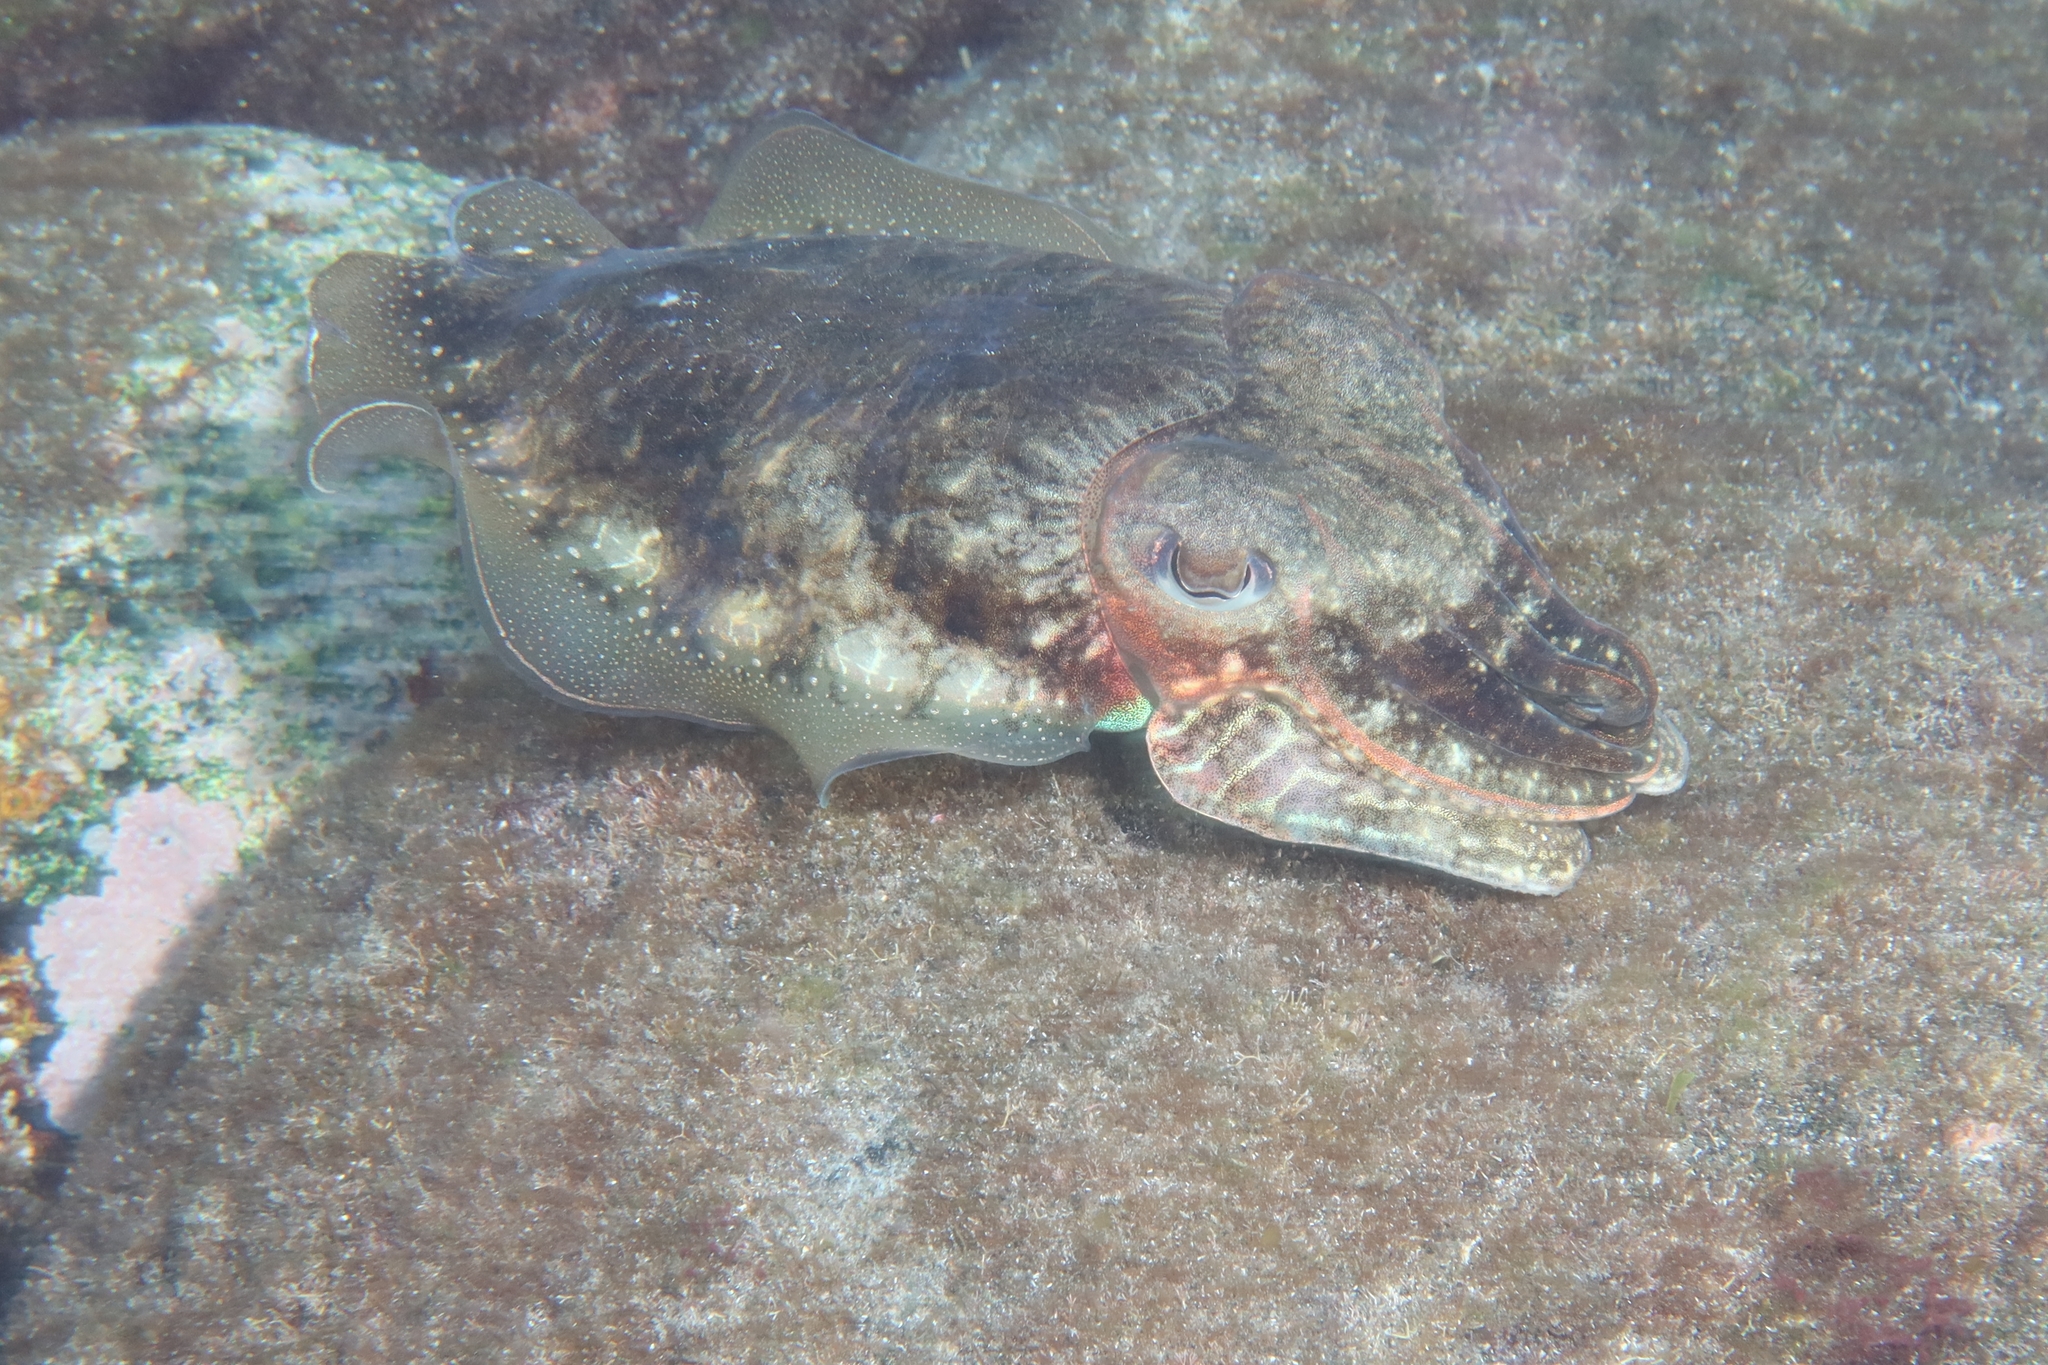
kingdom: Animalia
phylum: Mollusca
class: Cephalopoda
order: Sepiida
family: Sepiidae
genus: Sepia
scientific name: Sepia officinalis
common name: Common cuttlefish
